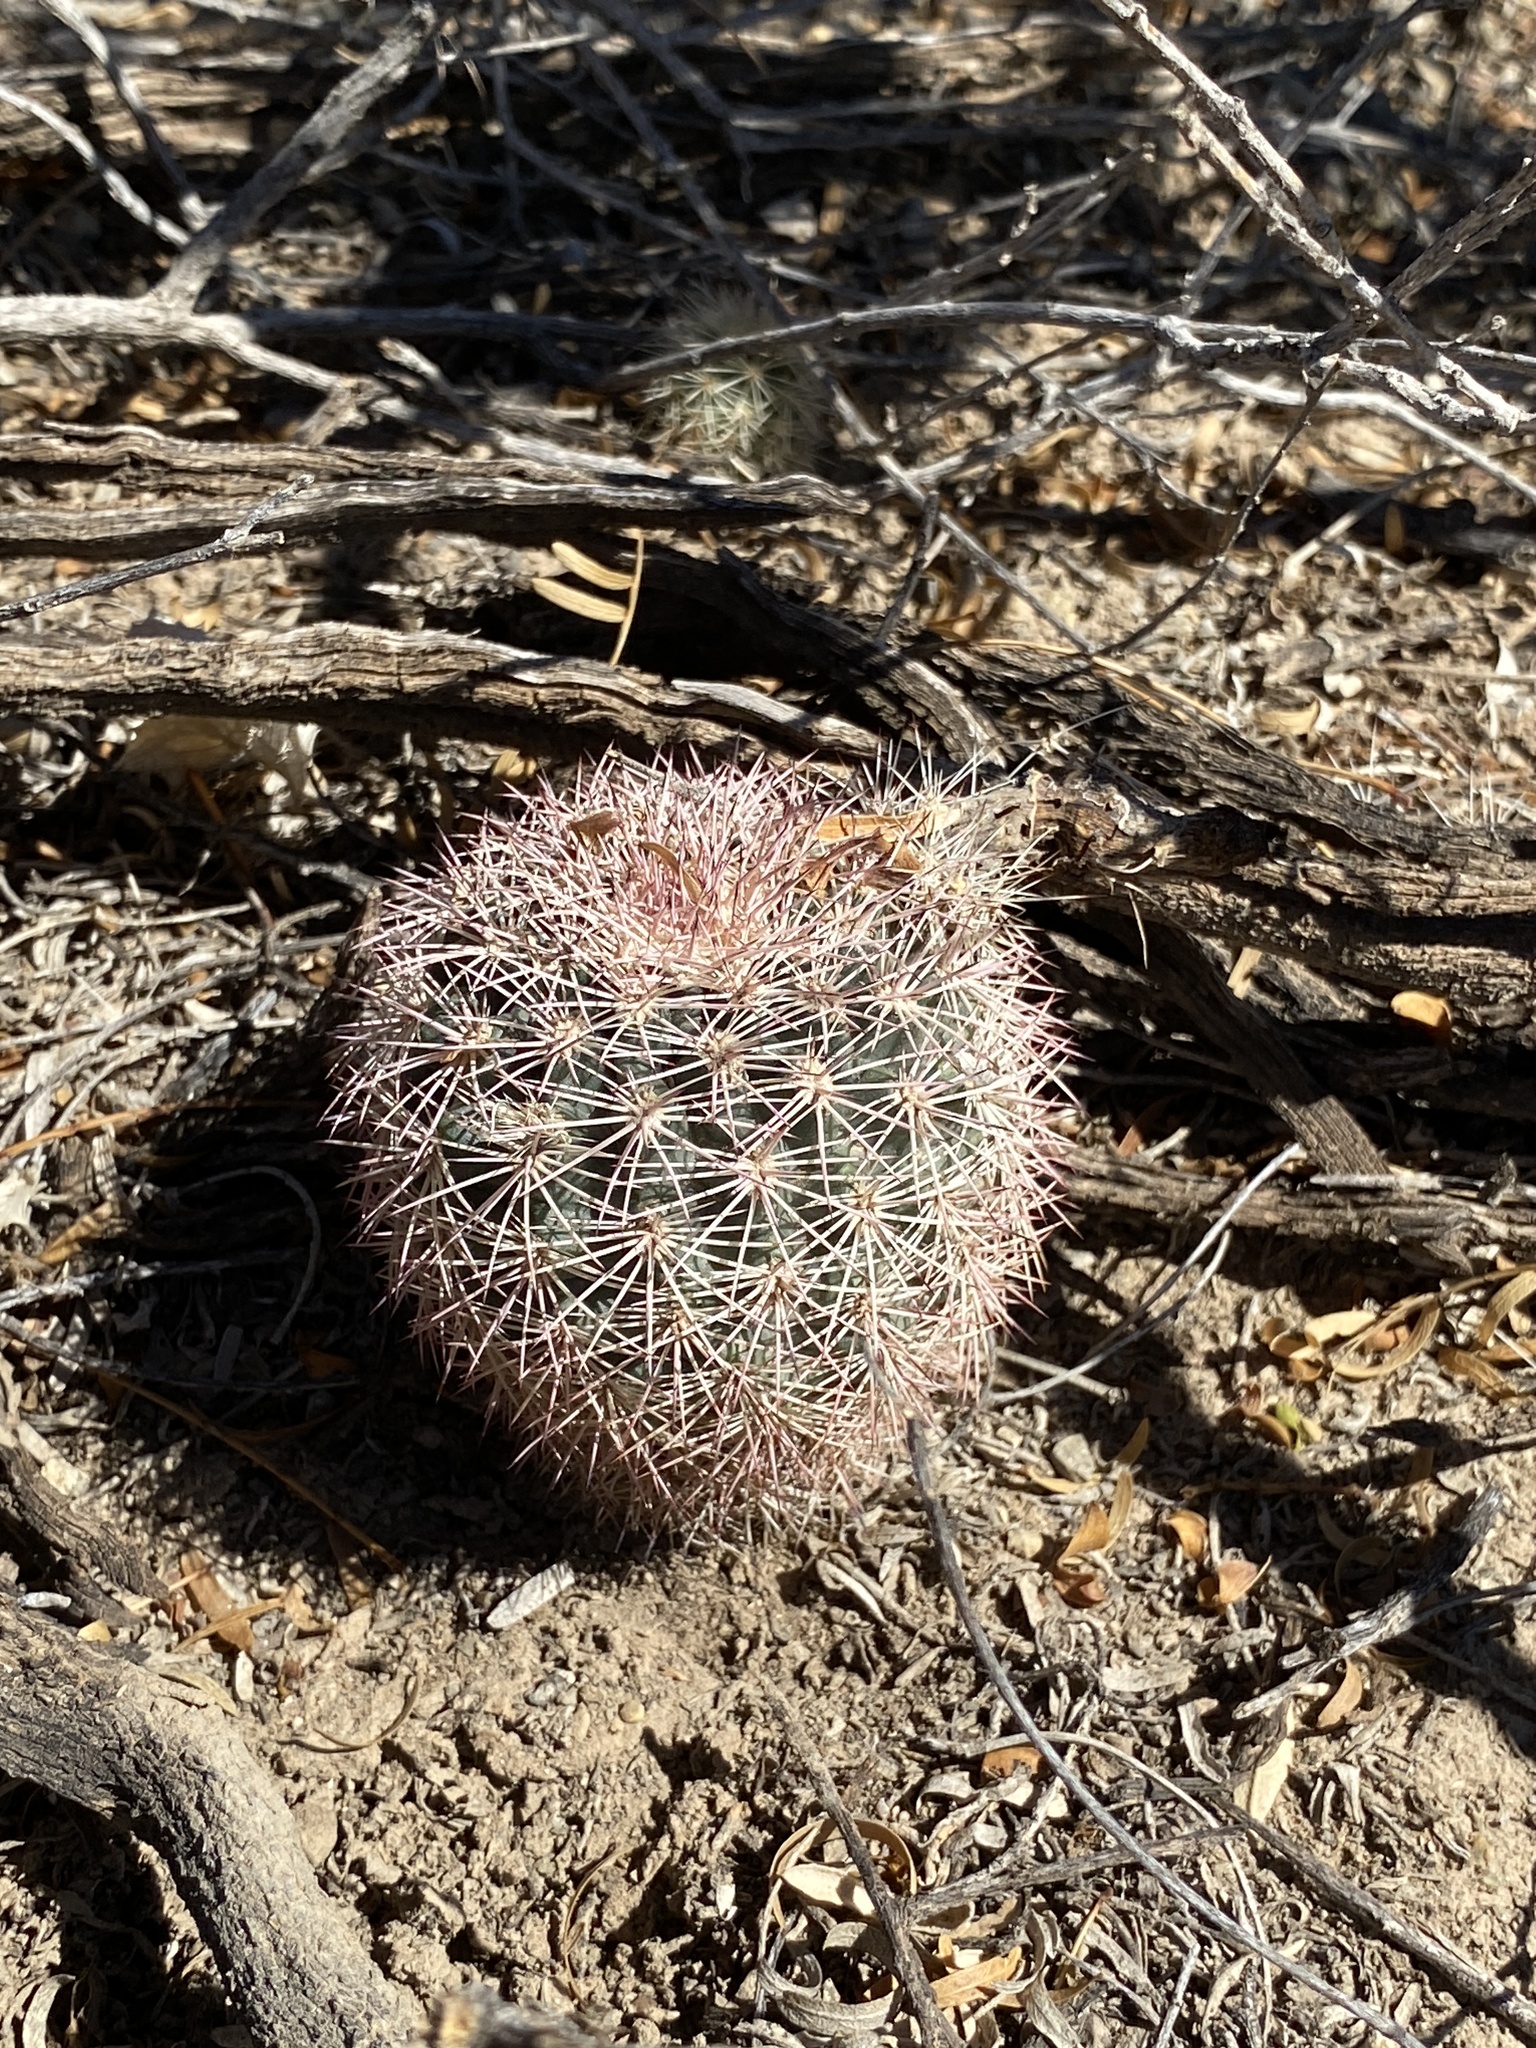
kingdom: Plantae
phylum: Tracheophyta
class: Magnoliopsida
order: Caryophyllales
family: Cactaceae
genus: Echinocereus
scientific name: Echinocereus dasyacanthus
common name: Spiny hedgehog cactus
